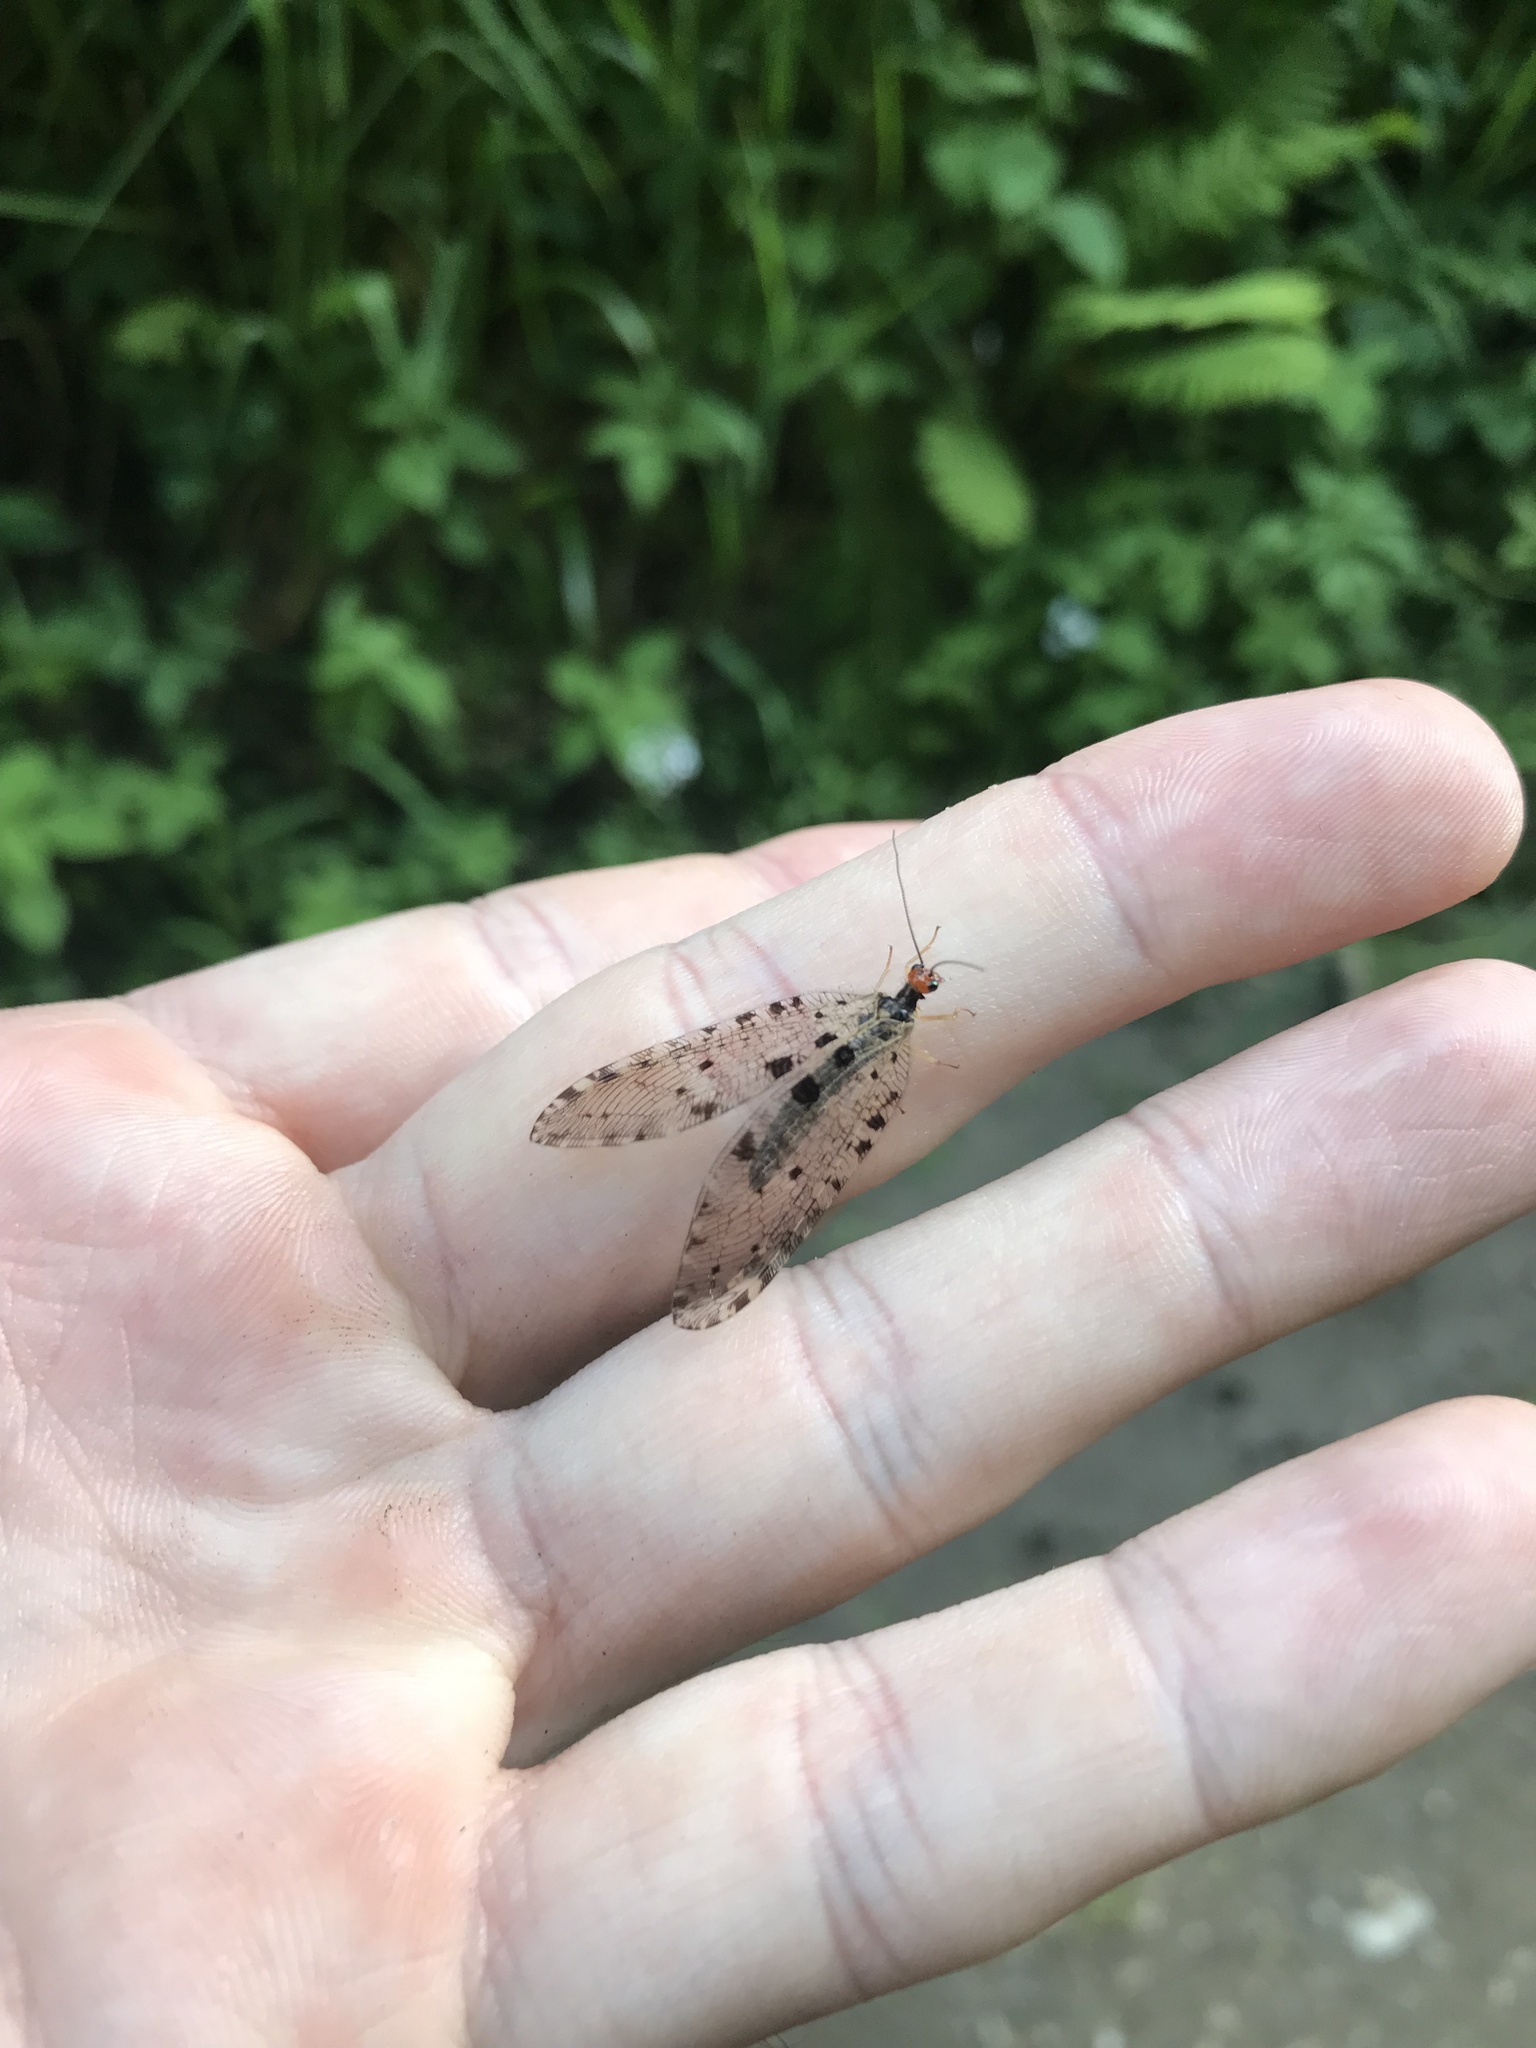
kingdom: Animalia
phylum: Arthropoda
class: Insecta
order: Neuroptera
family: Osmylidae
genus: Osmylus
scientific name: Osmylus fulvicephalus
